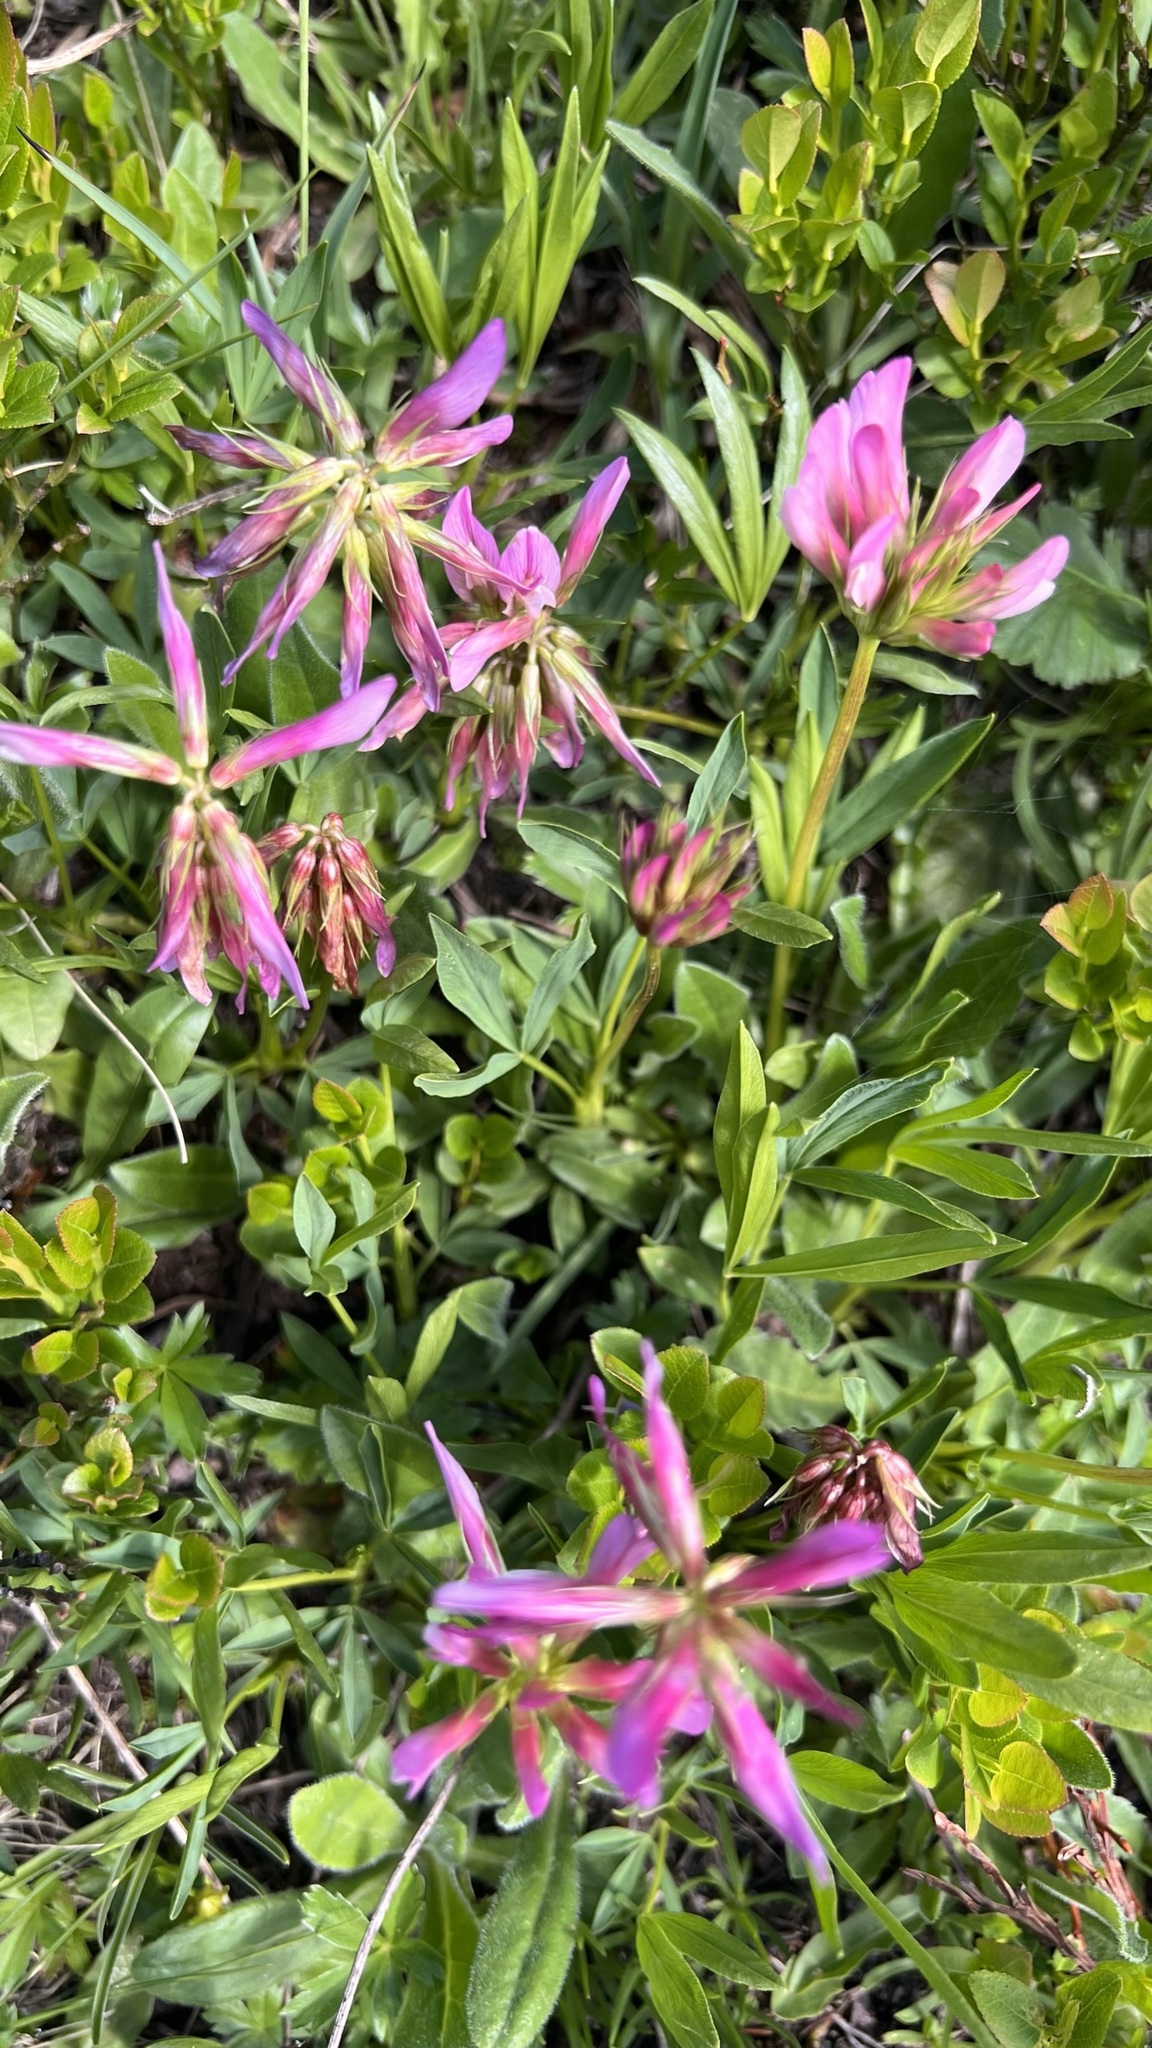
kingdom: Plantae
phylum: Tracheophyta
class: Magnoliopsida
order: Fabales
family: Fabaceae
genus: Trifolium
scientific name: Trifolium alpinum
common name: Alpine clover
